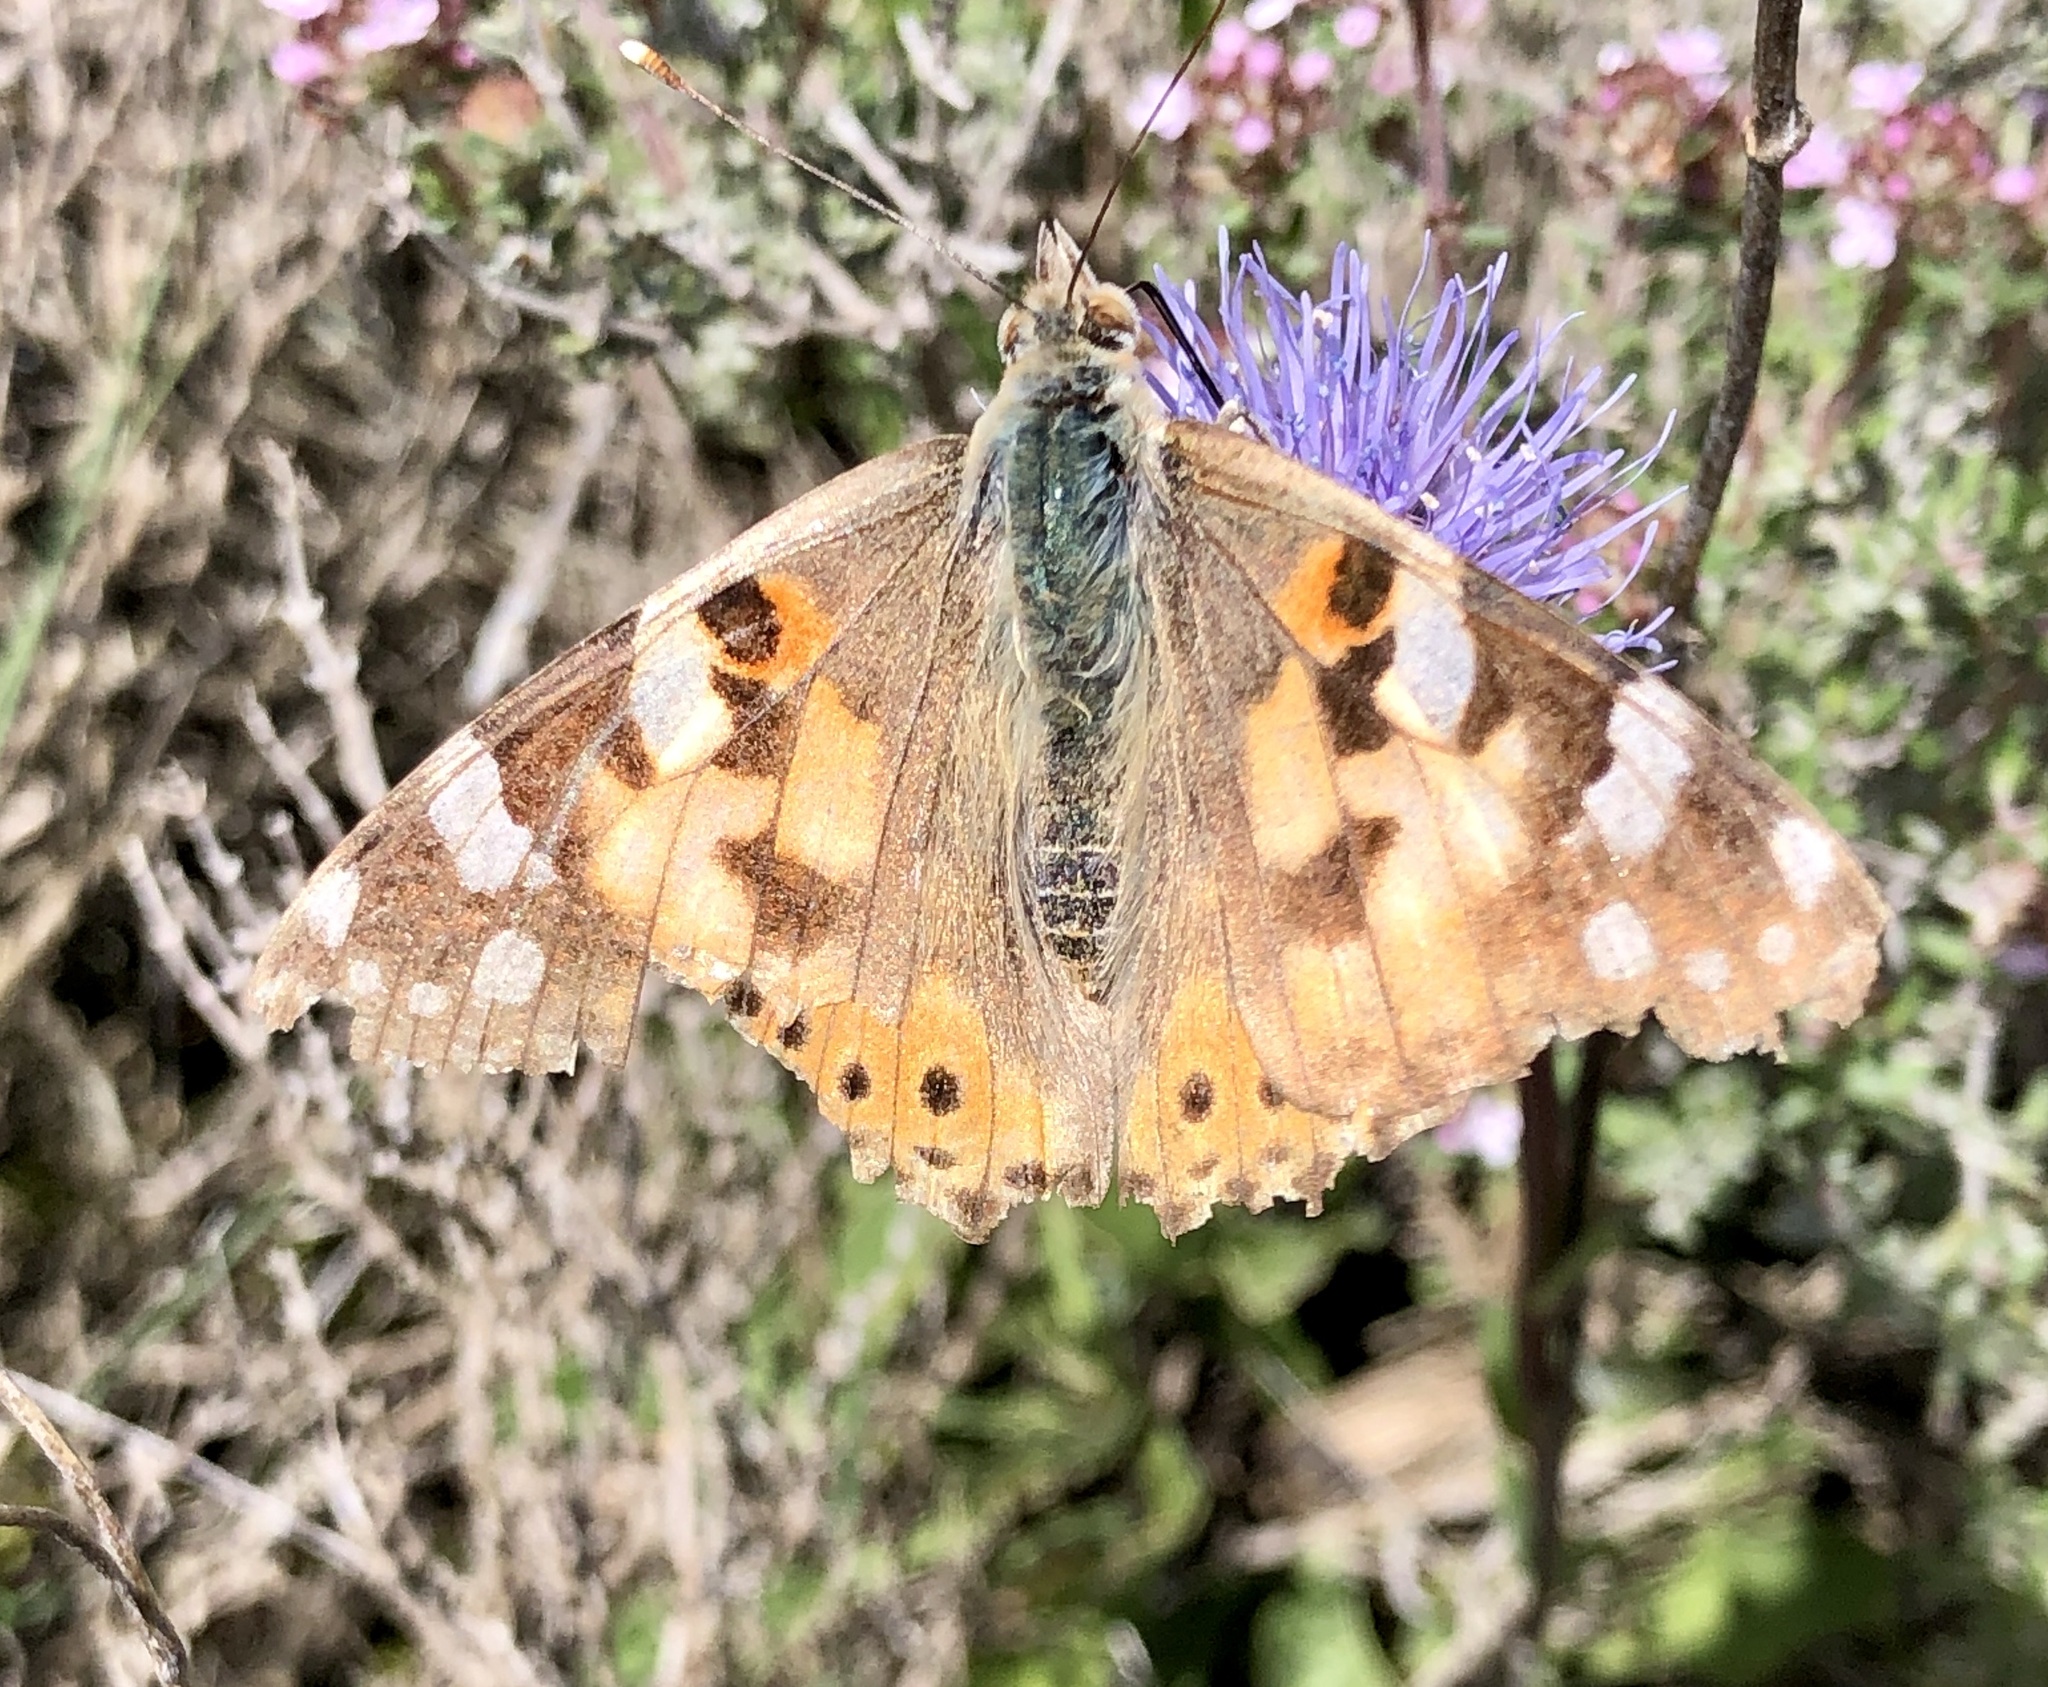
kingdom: Animalia
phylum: Arthropoda
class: Insecta
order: Lepidoptera
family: Nymphalidae
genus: Vanessa
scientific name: Vanessa cardui
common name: Painted lady
